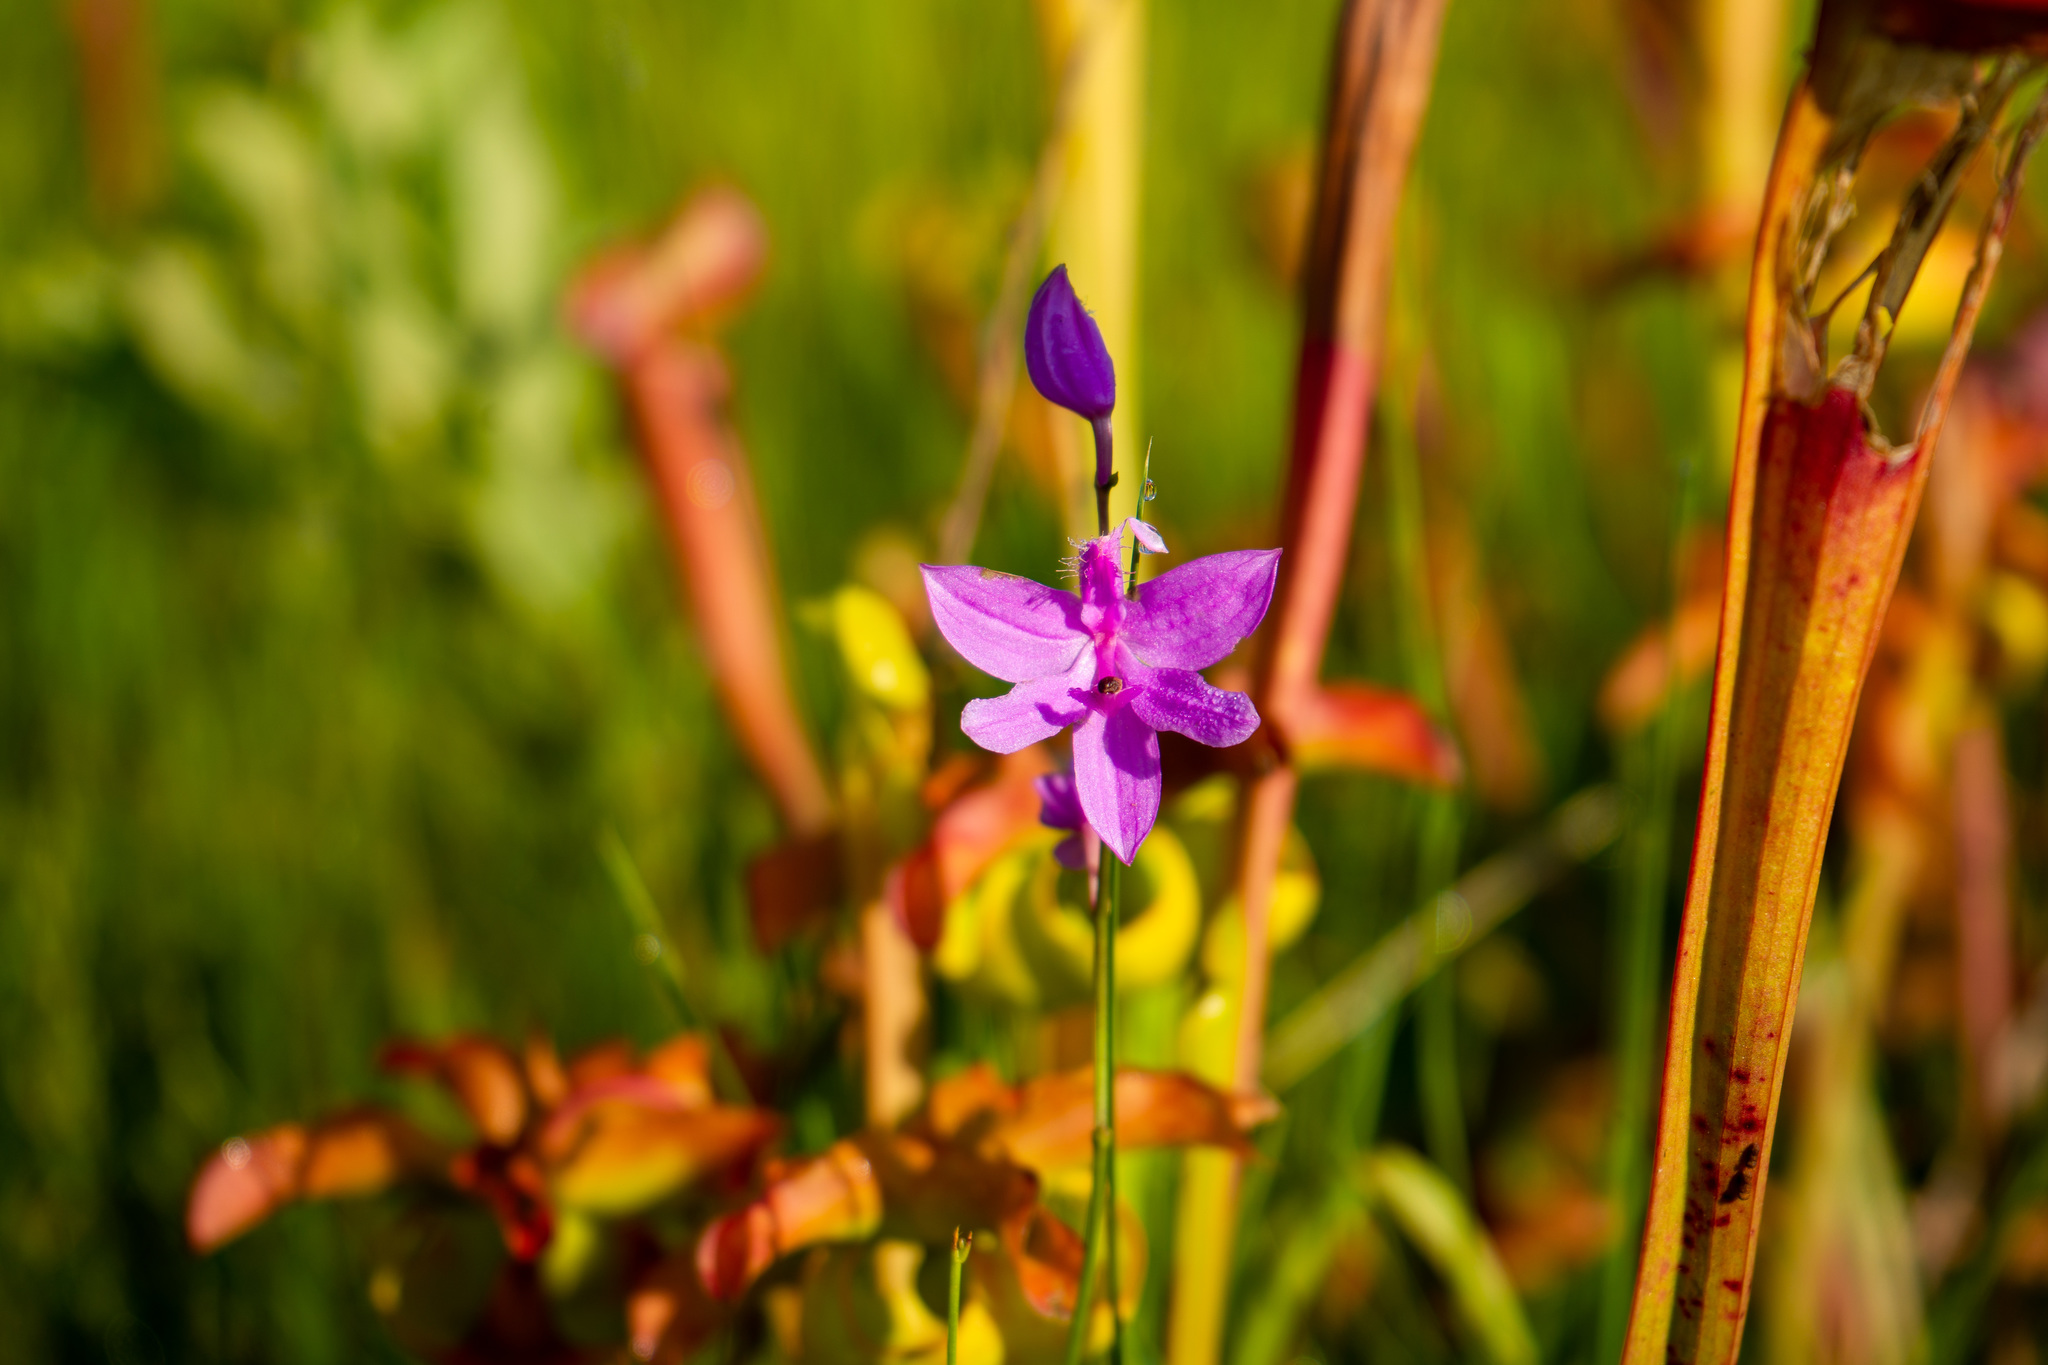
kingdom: Plantae
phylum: Tracheophyta
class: Liliopsida
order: Asparagales
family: Orchidaceae
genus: Calopogon
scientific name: Calopogon tuberosus
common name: Grass-pink
